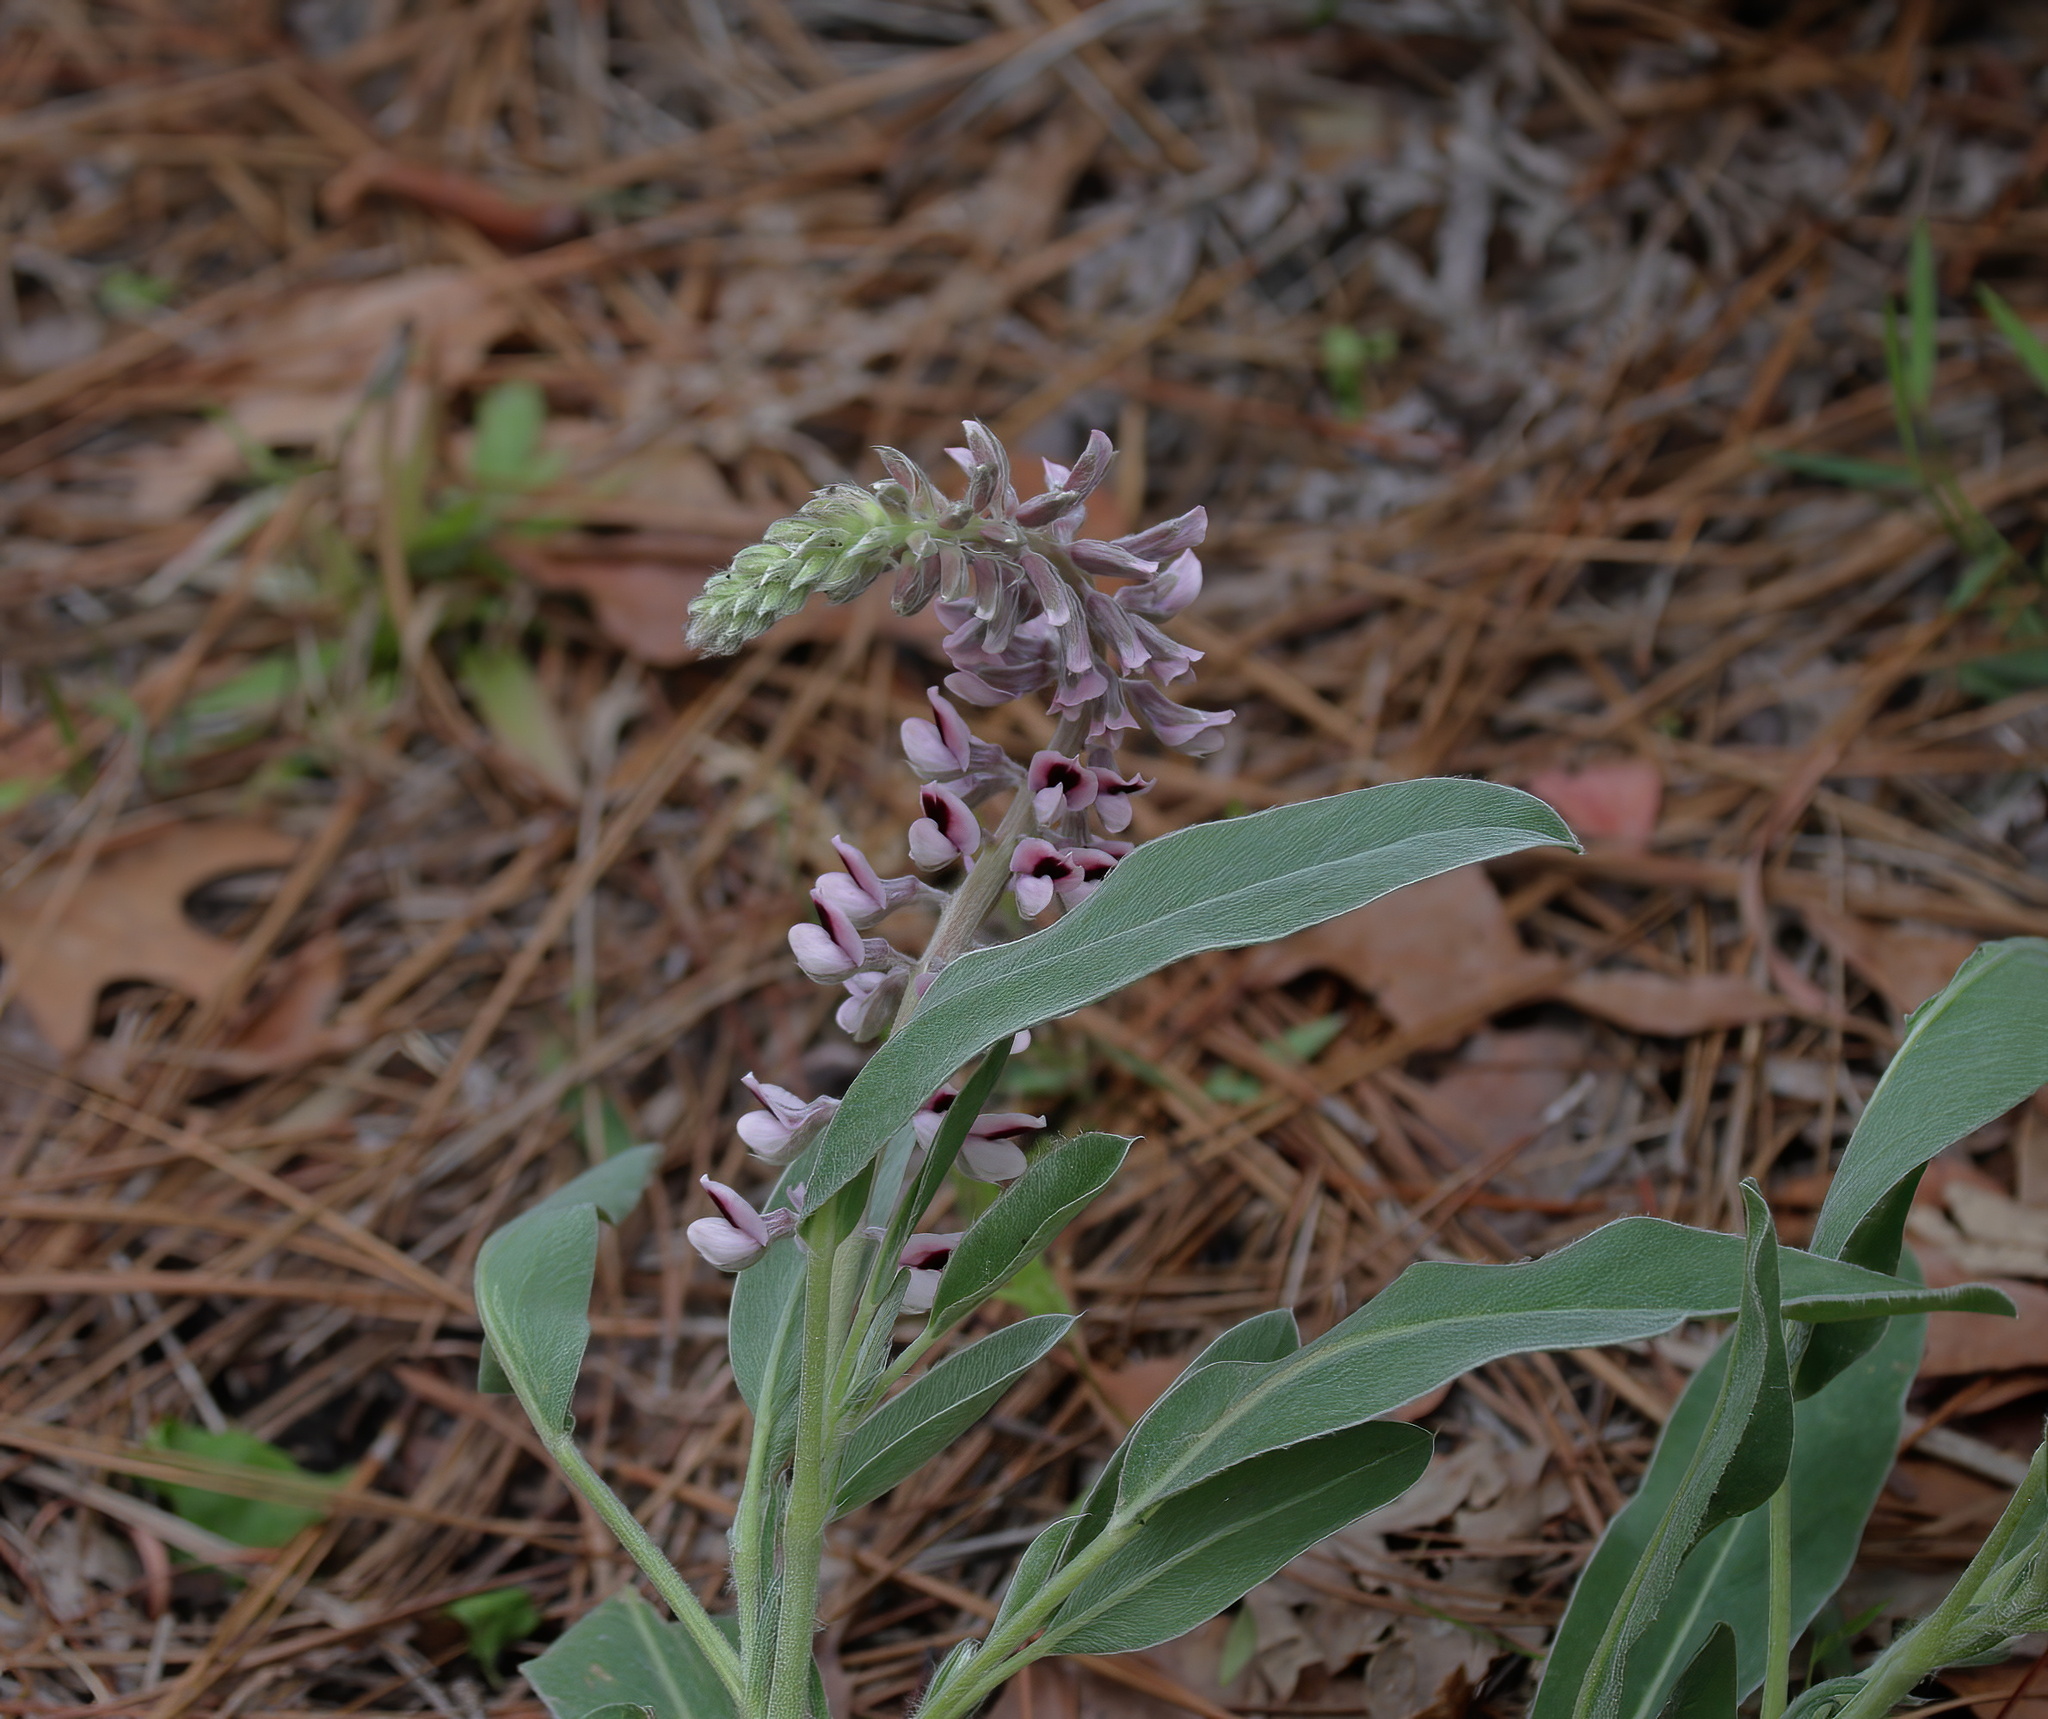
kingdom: Plantae
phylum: Tracheophyta
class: Magnoliopsida
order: Fabales
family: Fabaceae
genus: Lupinus
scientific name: Lupinus villosus
